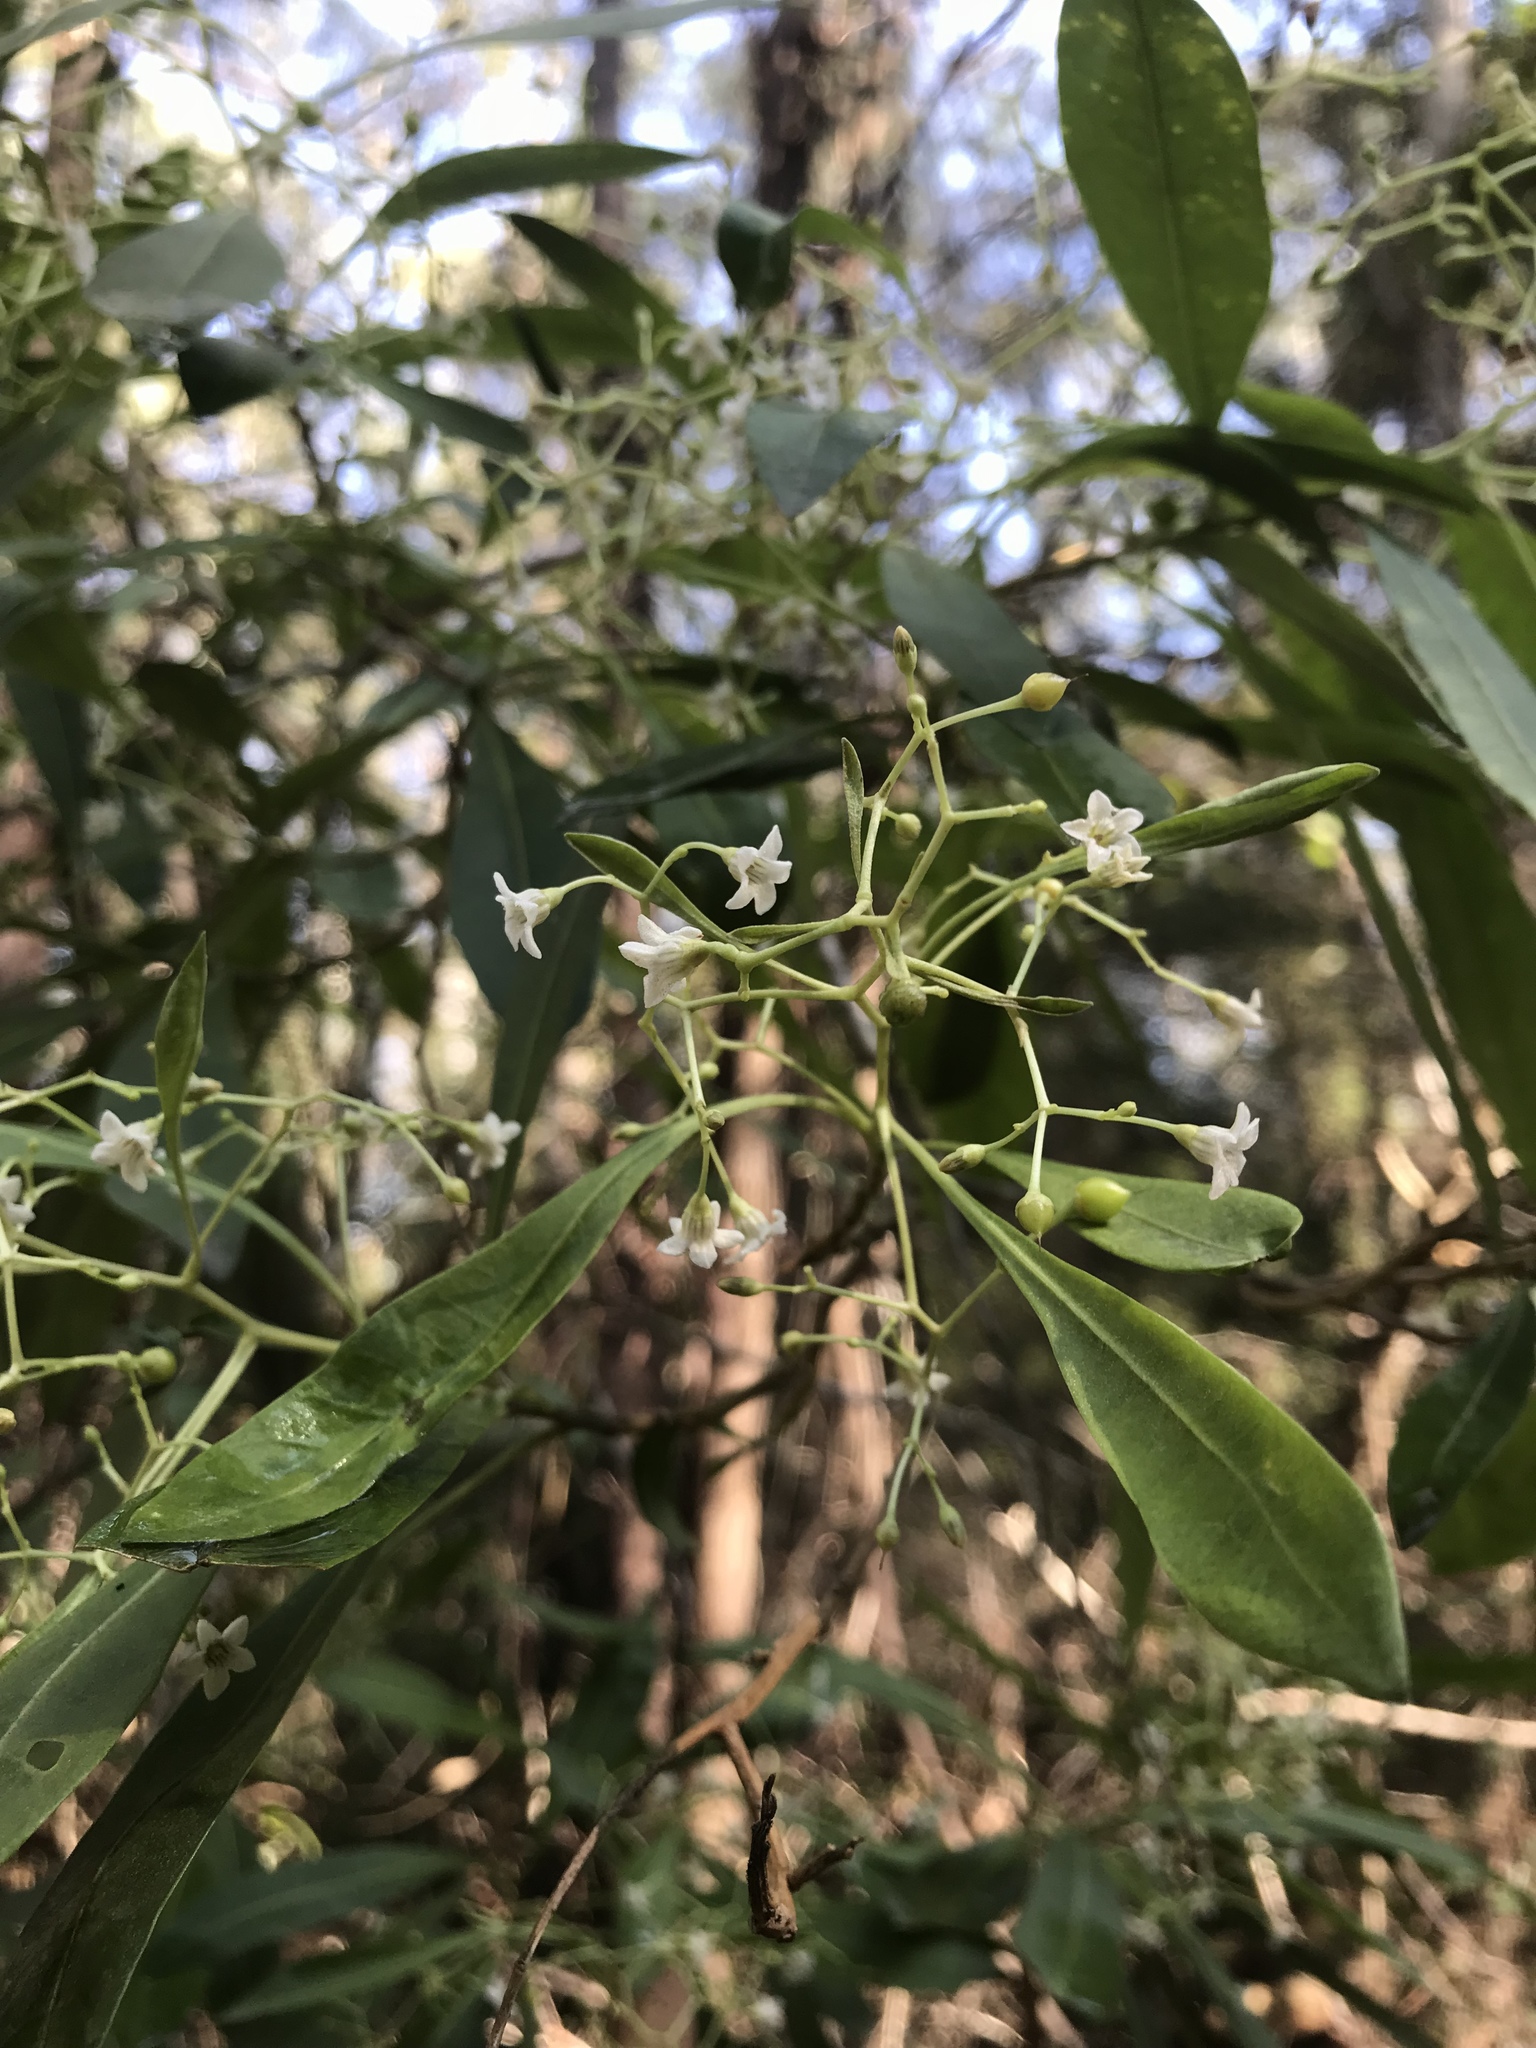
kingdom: Plantae
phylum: Tracheophyta
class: Magnoliopsida
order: Solanales
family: Solanaceae
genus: Duboisia
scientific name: Duboisia myoporoides
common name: Corkwoodtree
